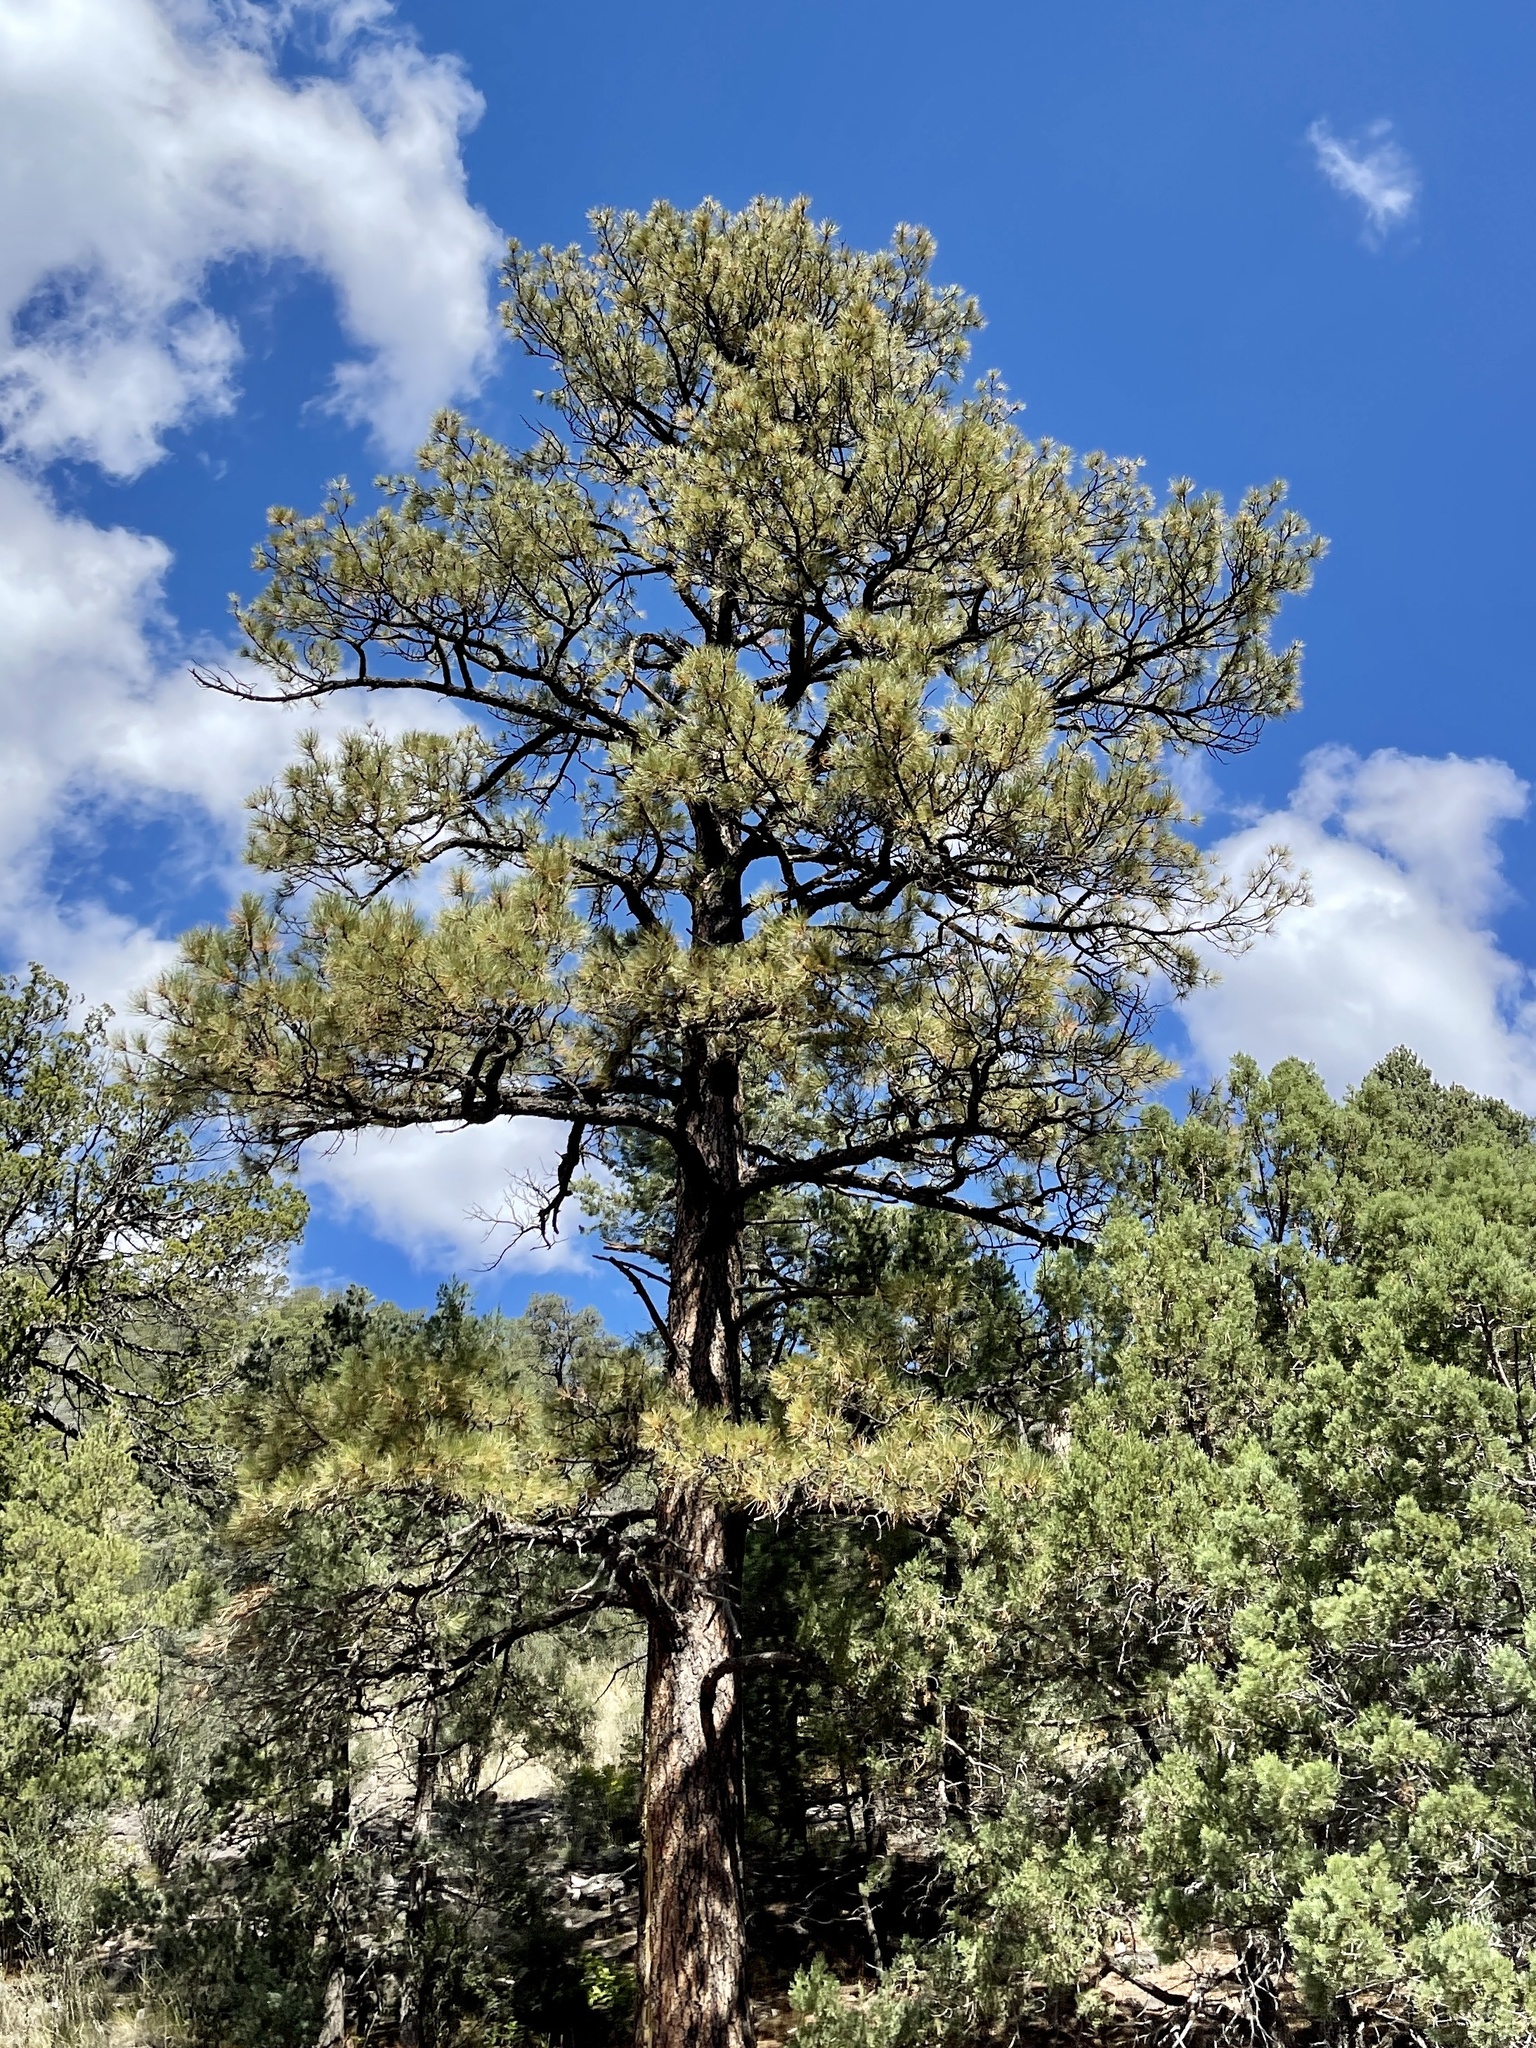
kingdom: Plantae
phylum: Tracheophyta
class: Pinopsida
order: Pinales
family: Pinaceae
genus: Pinus
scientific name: Pinus ponderosa
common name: Western yellow-pine
